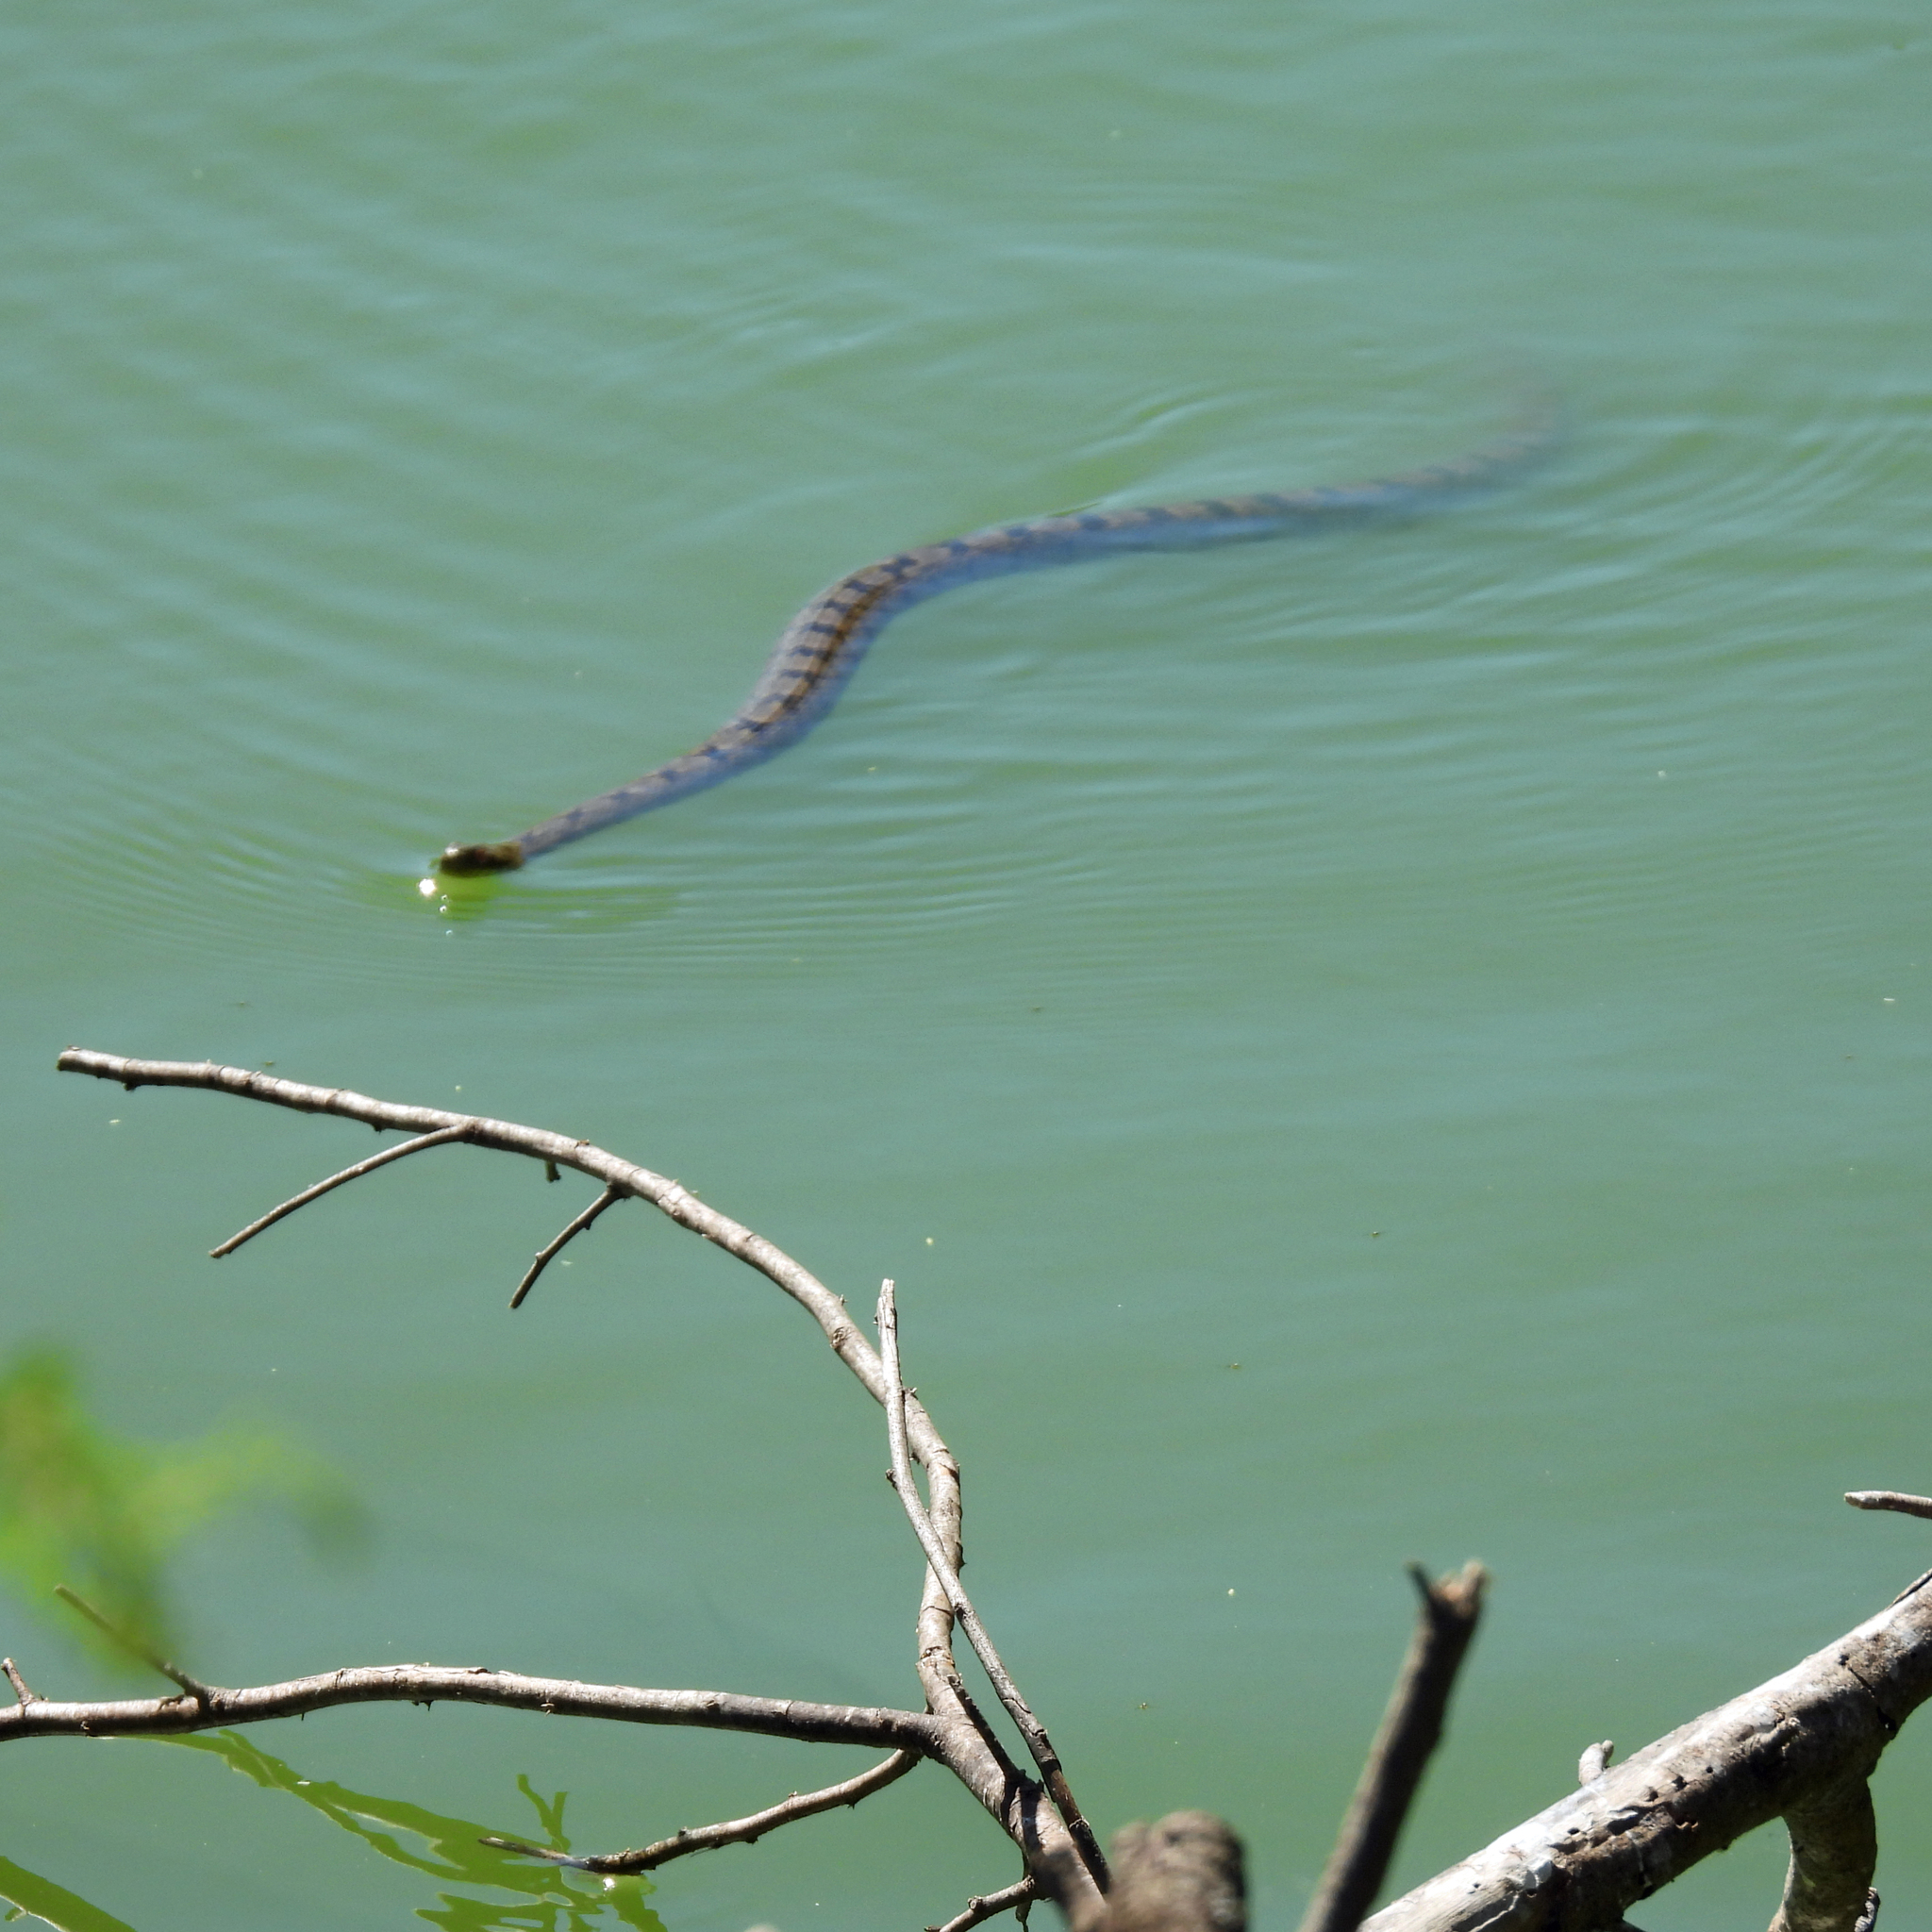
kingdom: Animalia
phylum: Chordata
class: Squamata
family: Colubridae
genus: Nerodia
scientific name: Nerodia rhombifer
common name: Diamondback water snake
